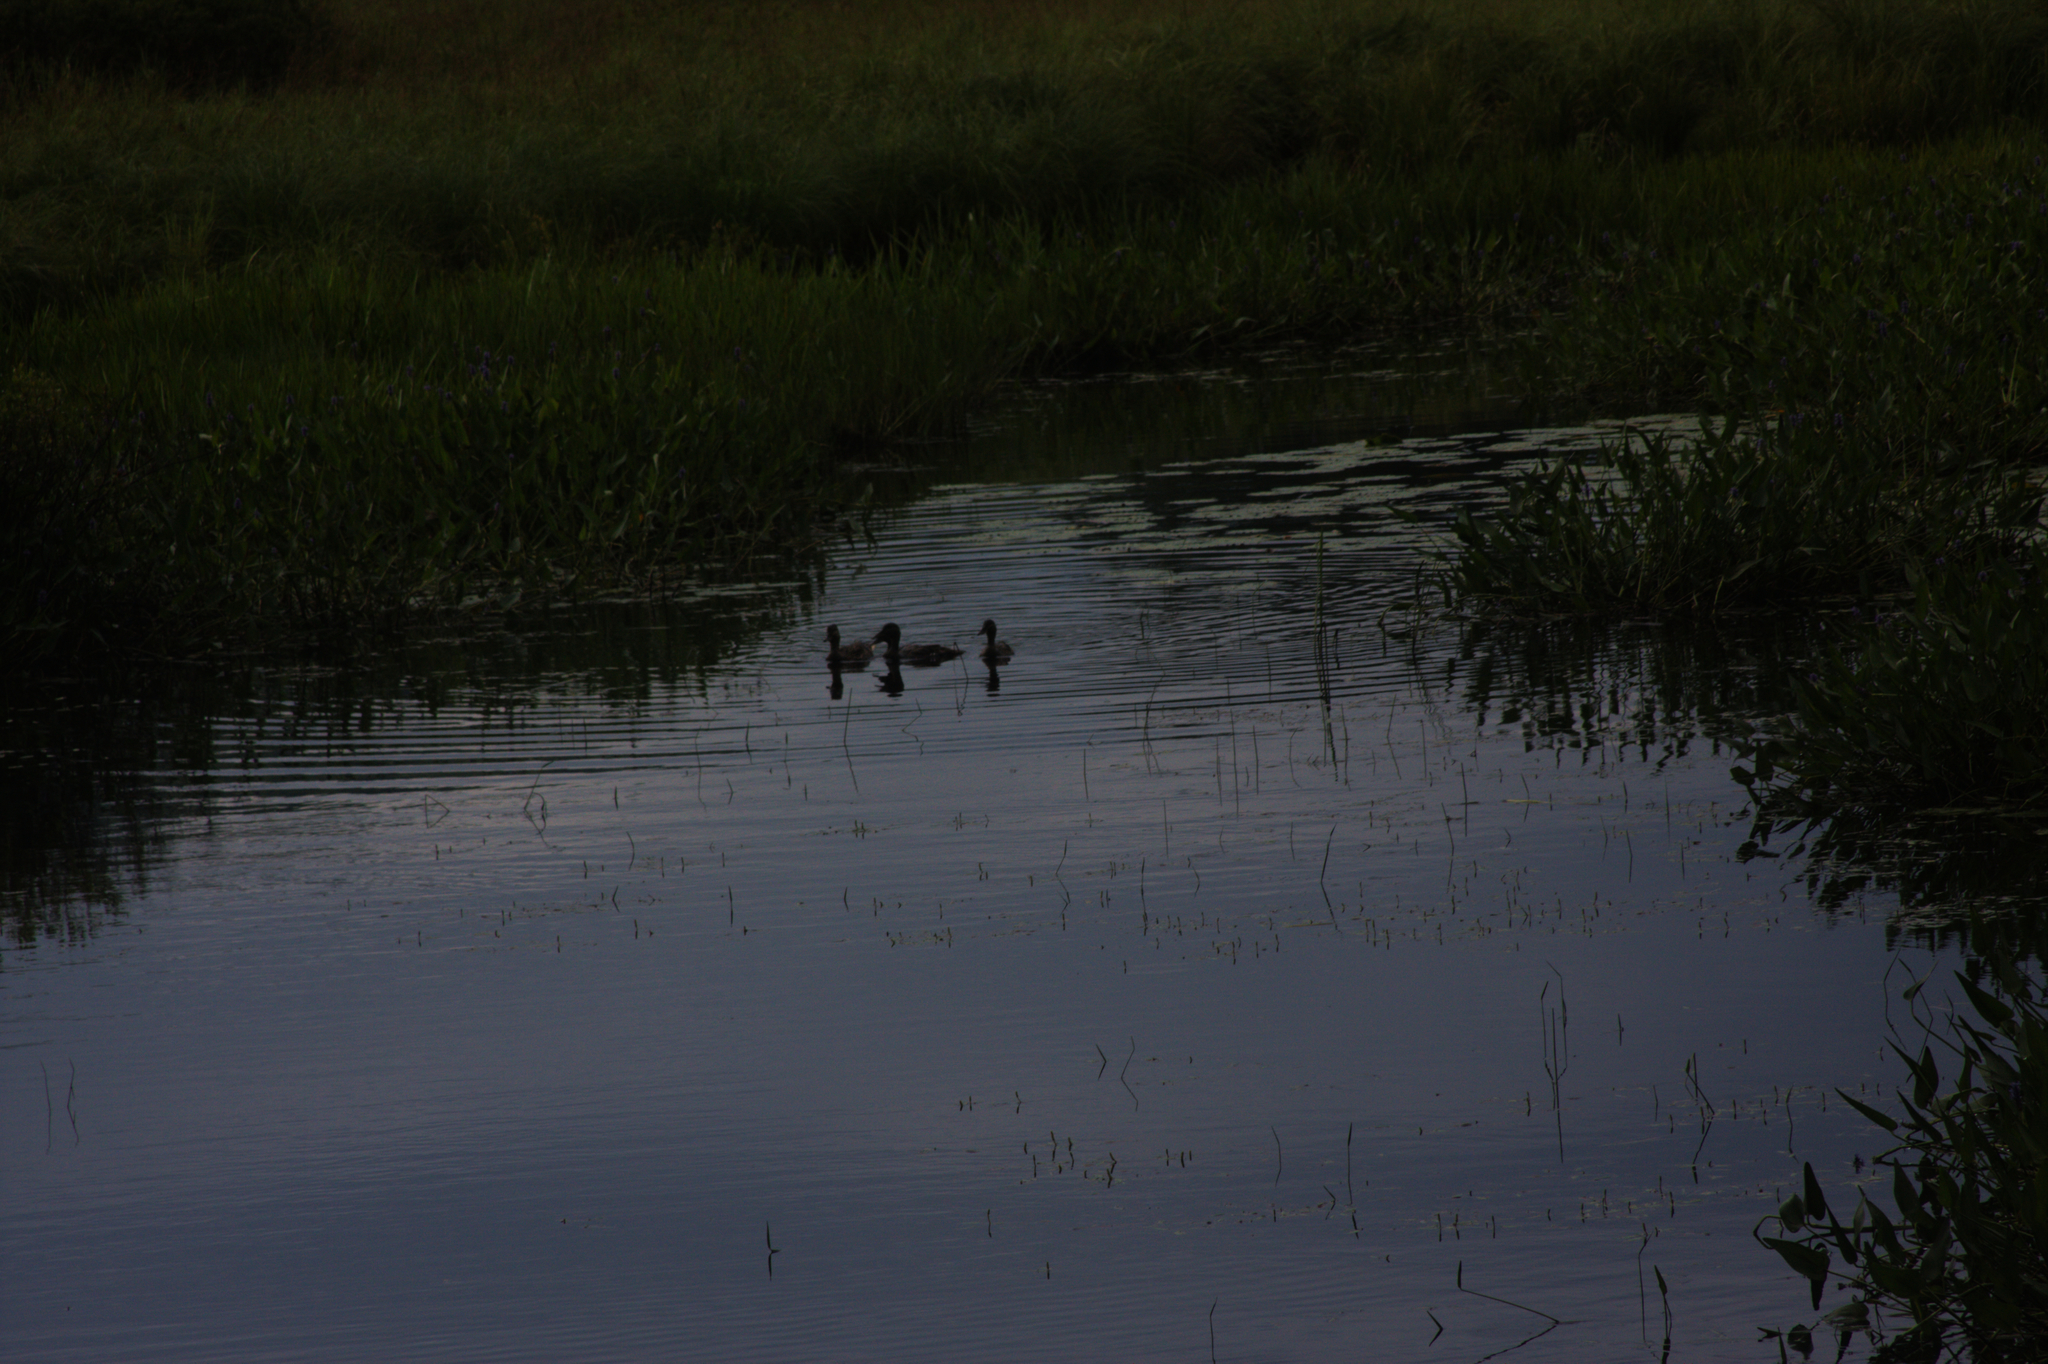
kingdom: Animalia
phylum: Chordata
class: Aves
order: Anseriformes
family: Anatidae
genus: Anas
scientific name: Anas platyrhynchos
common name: Mallard
